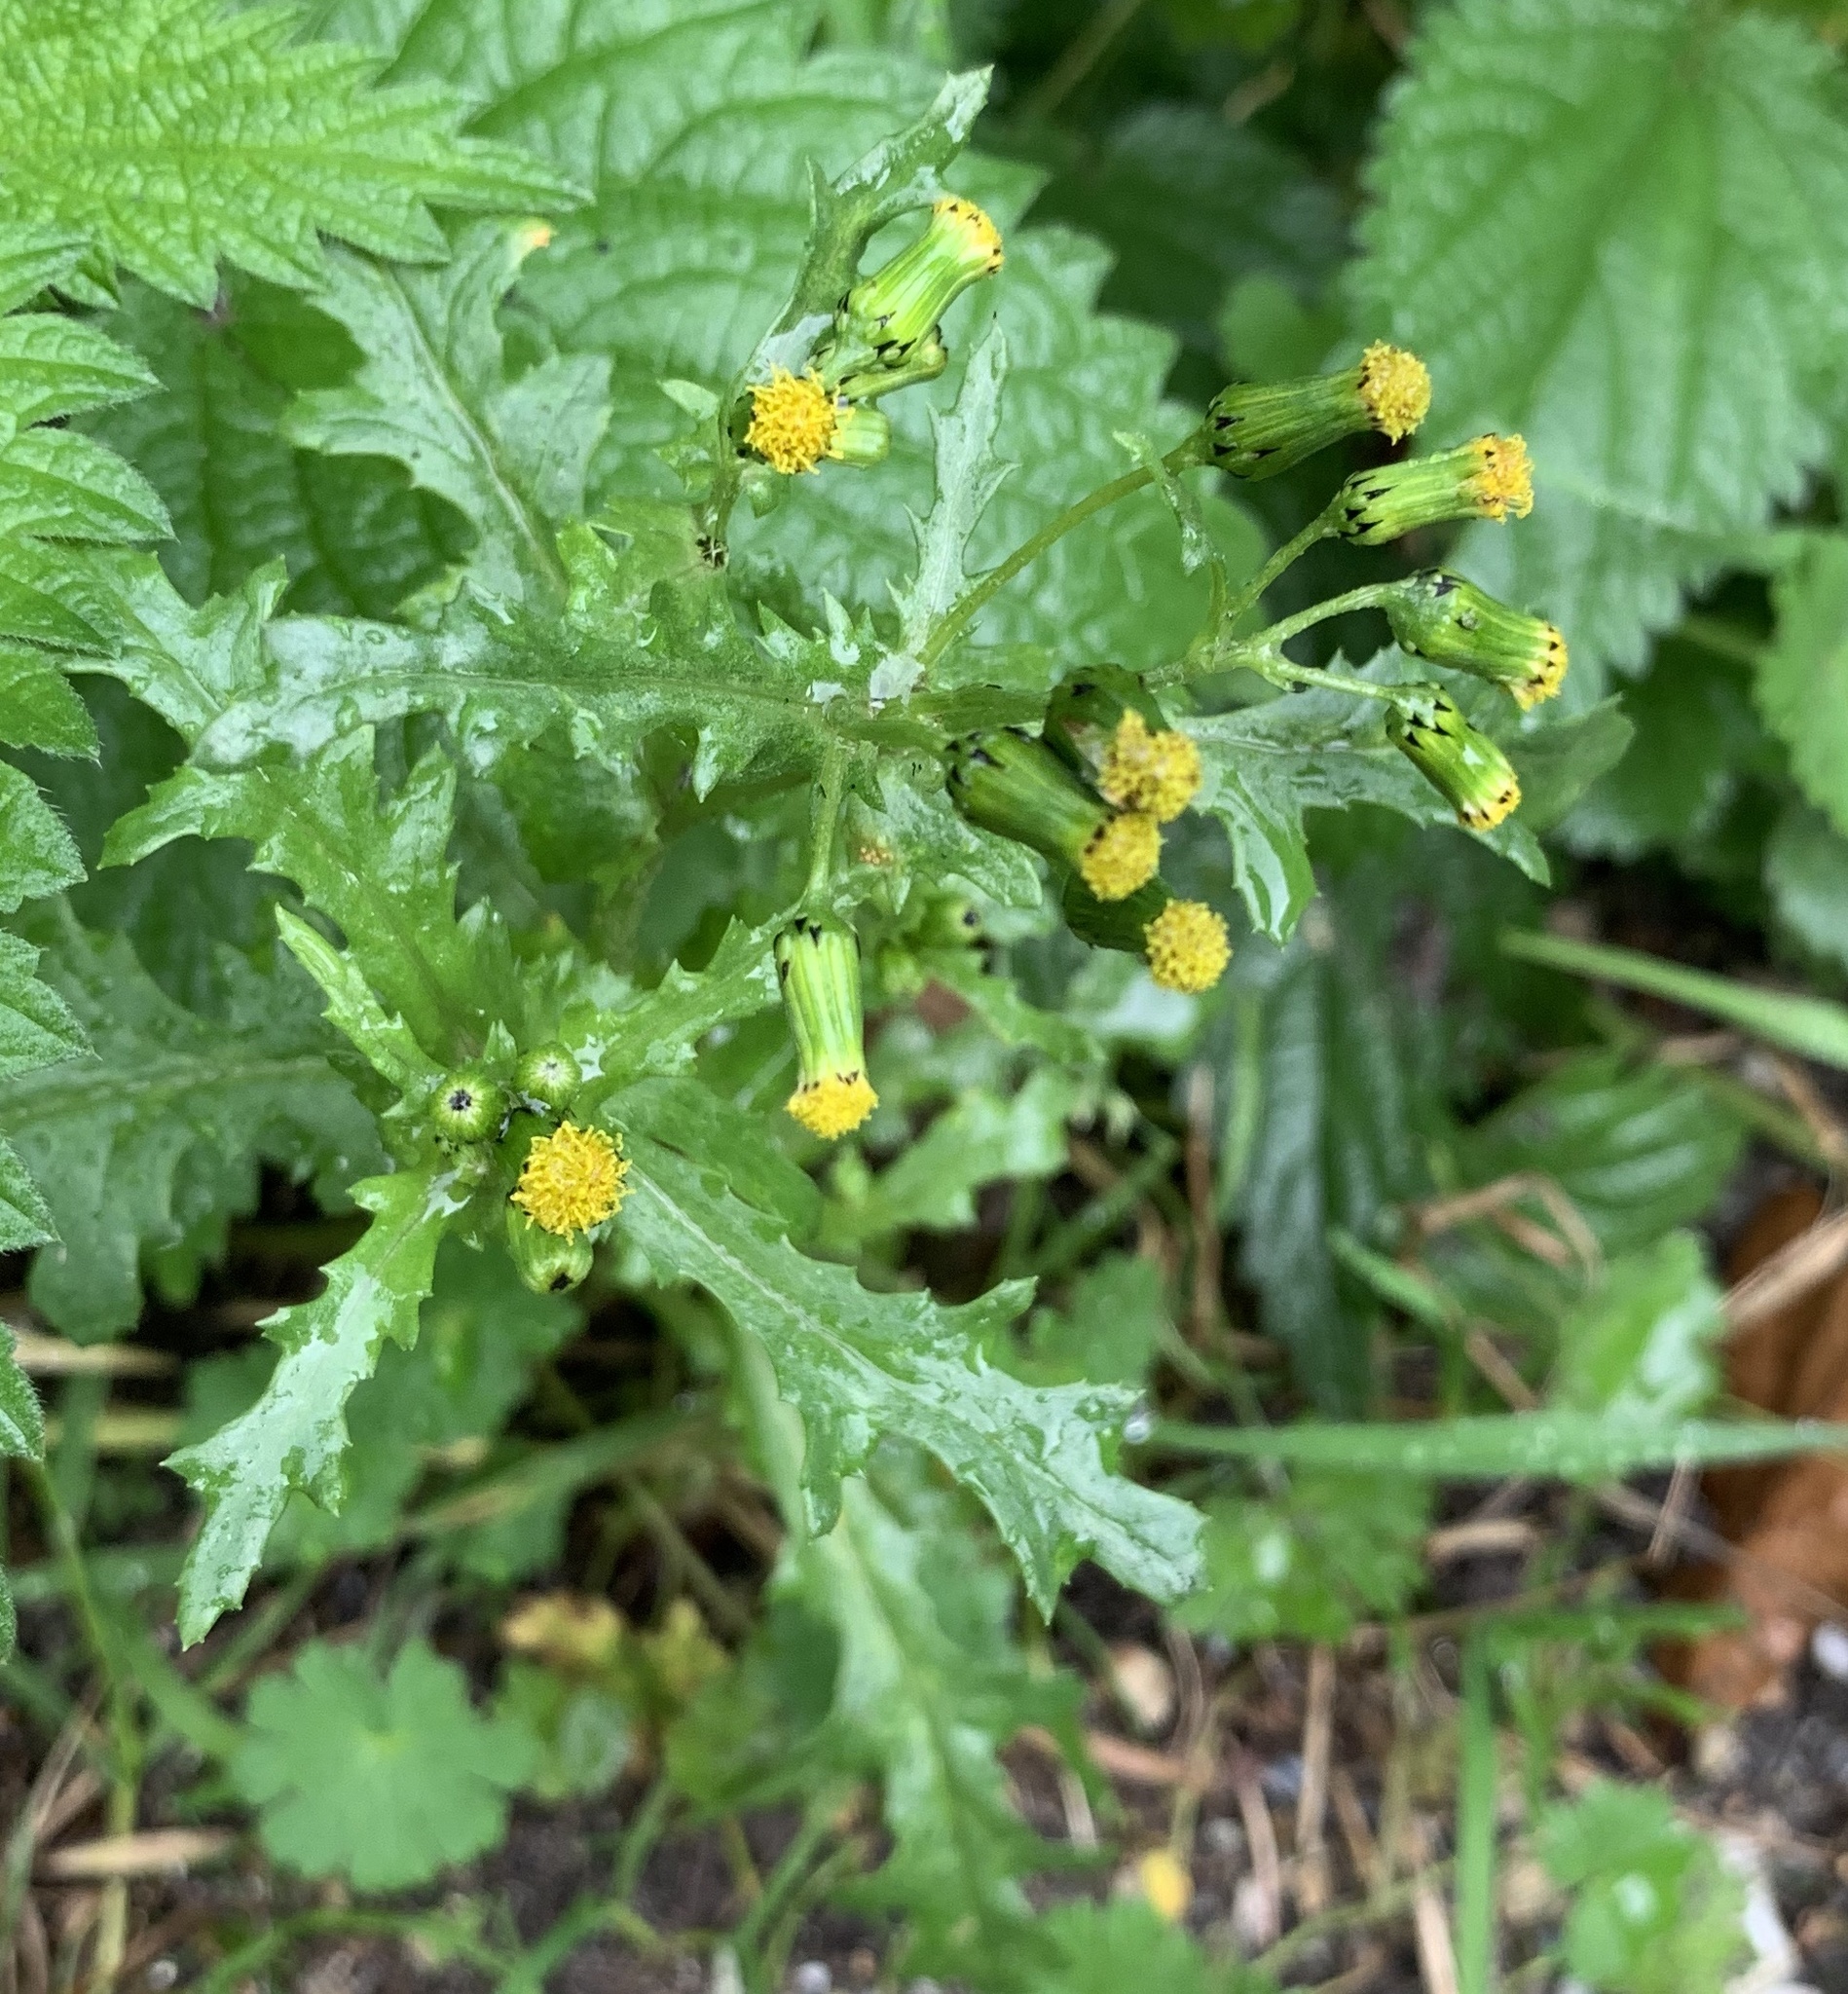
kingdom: Plantae
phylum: Tracheophyta
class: Magnoliopsida
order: Asterales
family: Asteraceae
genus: Senecio
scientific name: Senecio vulgaris
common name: Old-man-in-the-spring
